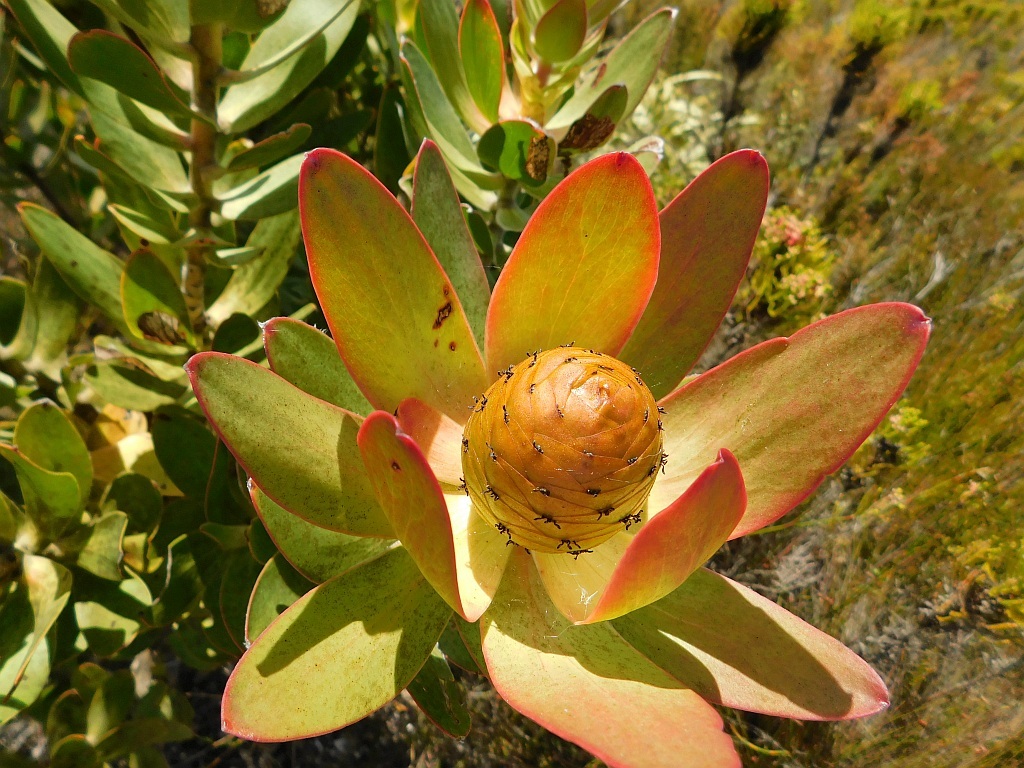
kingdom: Plantae
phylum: Tracheophyta
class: Magnoliopsida
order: Proteales
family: Proteaceae
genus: Leucadendron
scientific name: Leucadendron gandogeri
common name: Broad-leaf conebush
